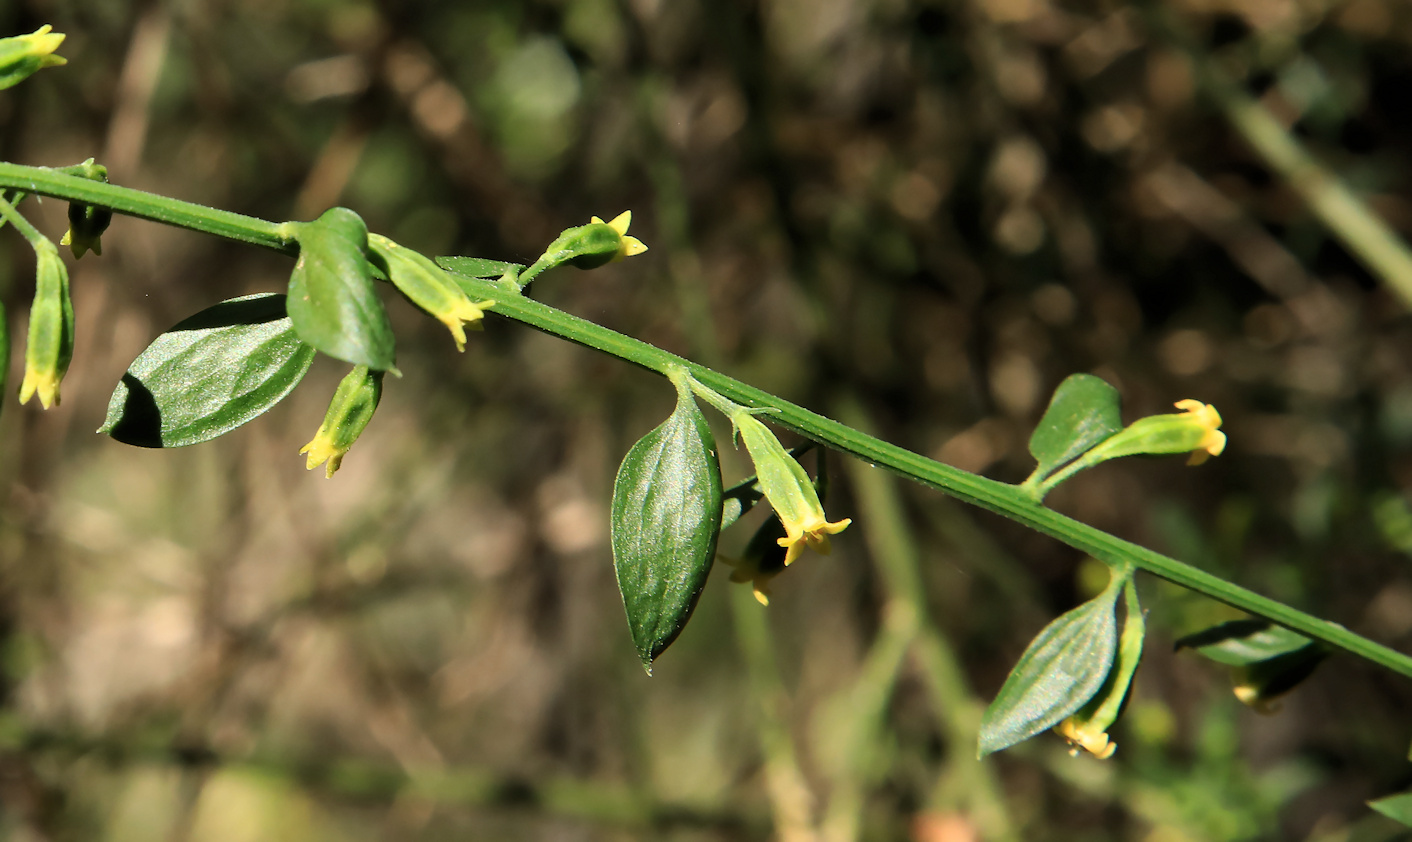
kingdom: Plantae
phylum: Tracheophyta
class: Magnoliopsida
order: Santalales
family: Thesiaceae
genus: Osyridicarpos
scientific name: Osyridicarpos schimperianus
